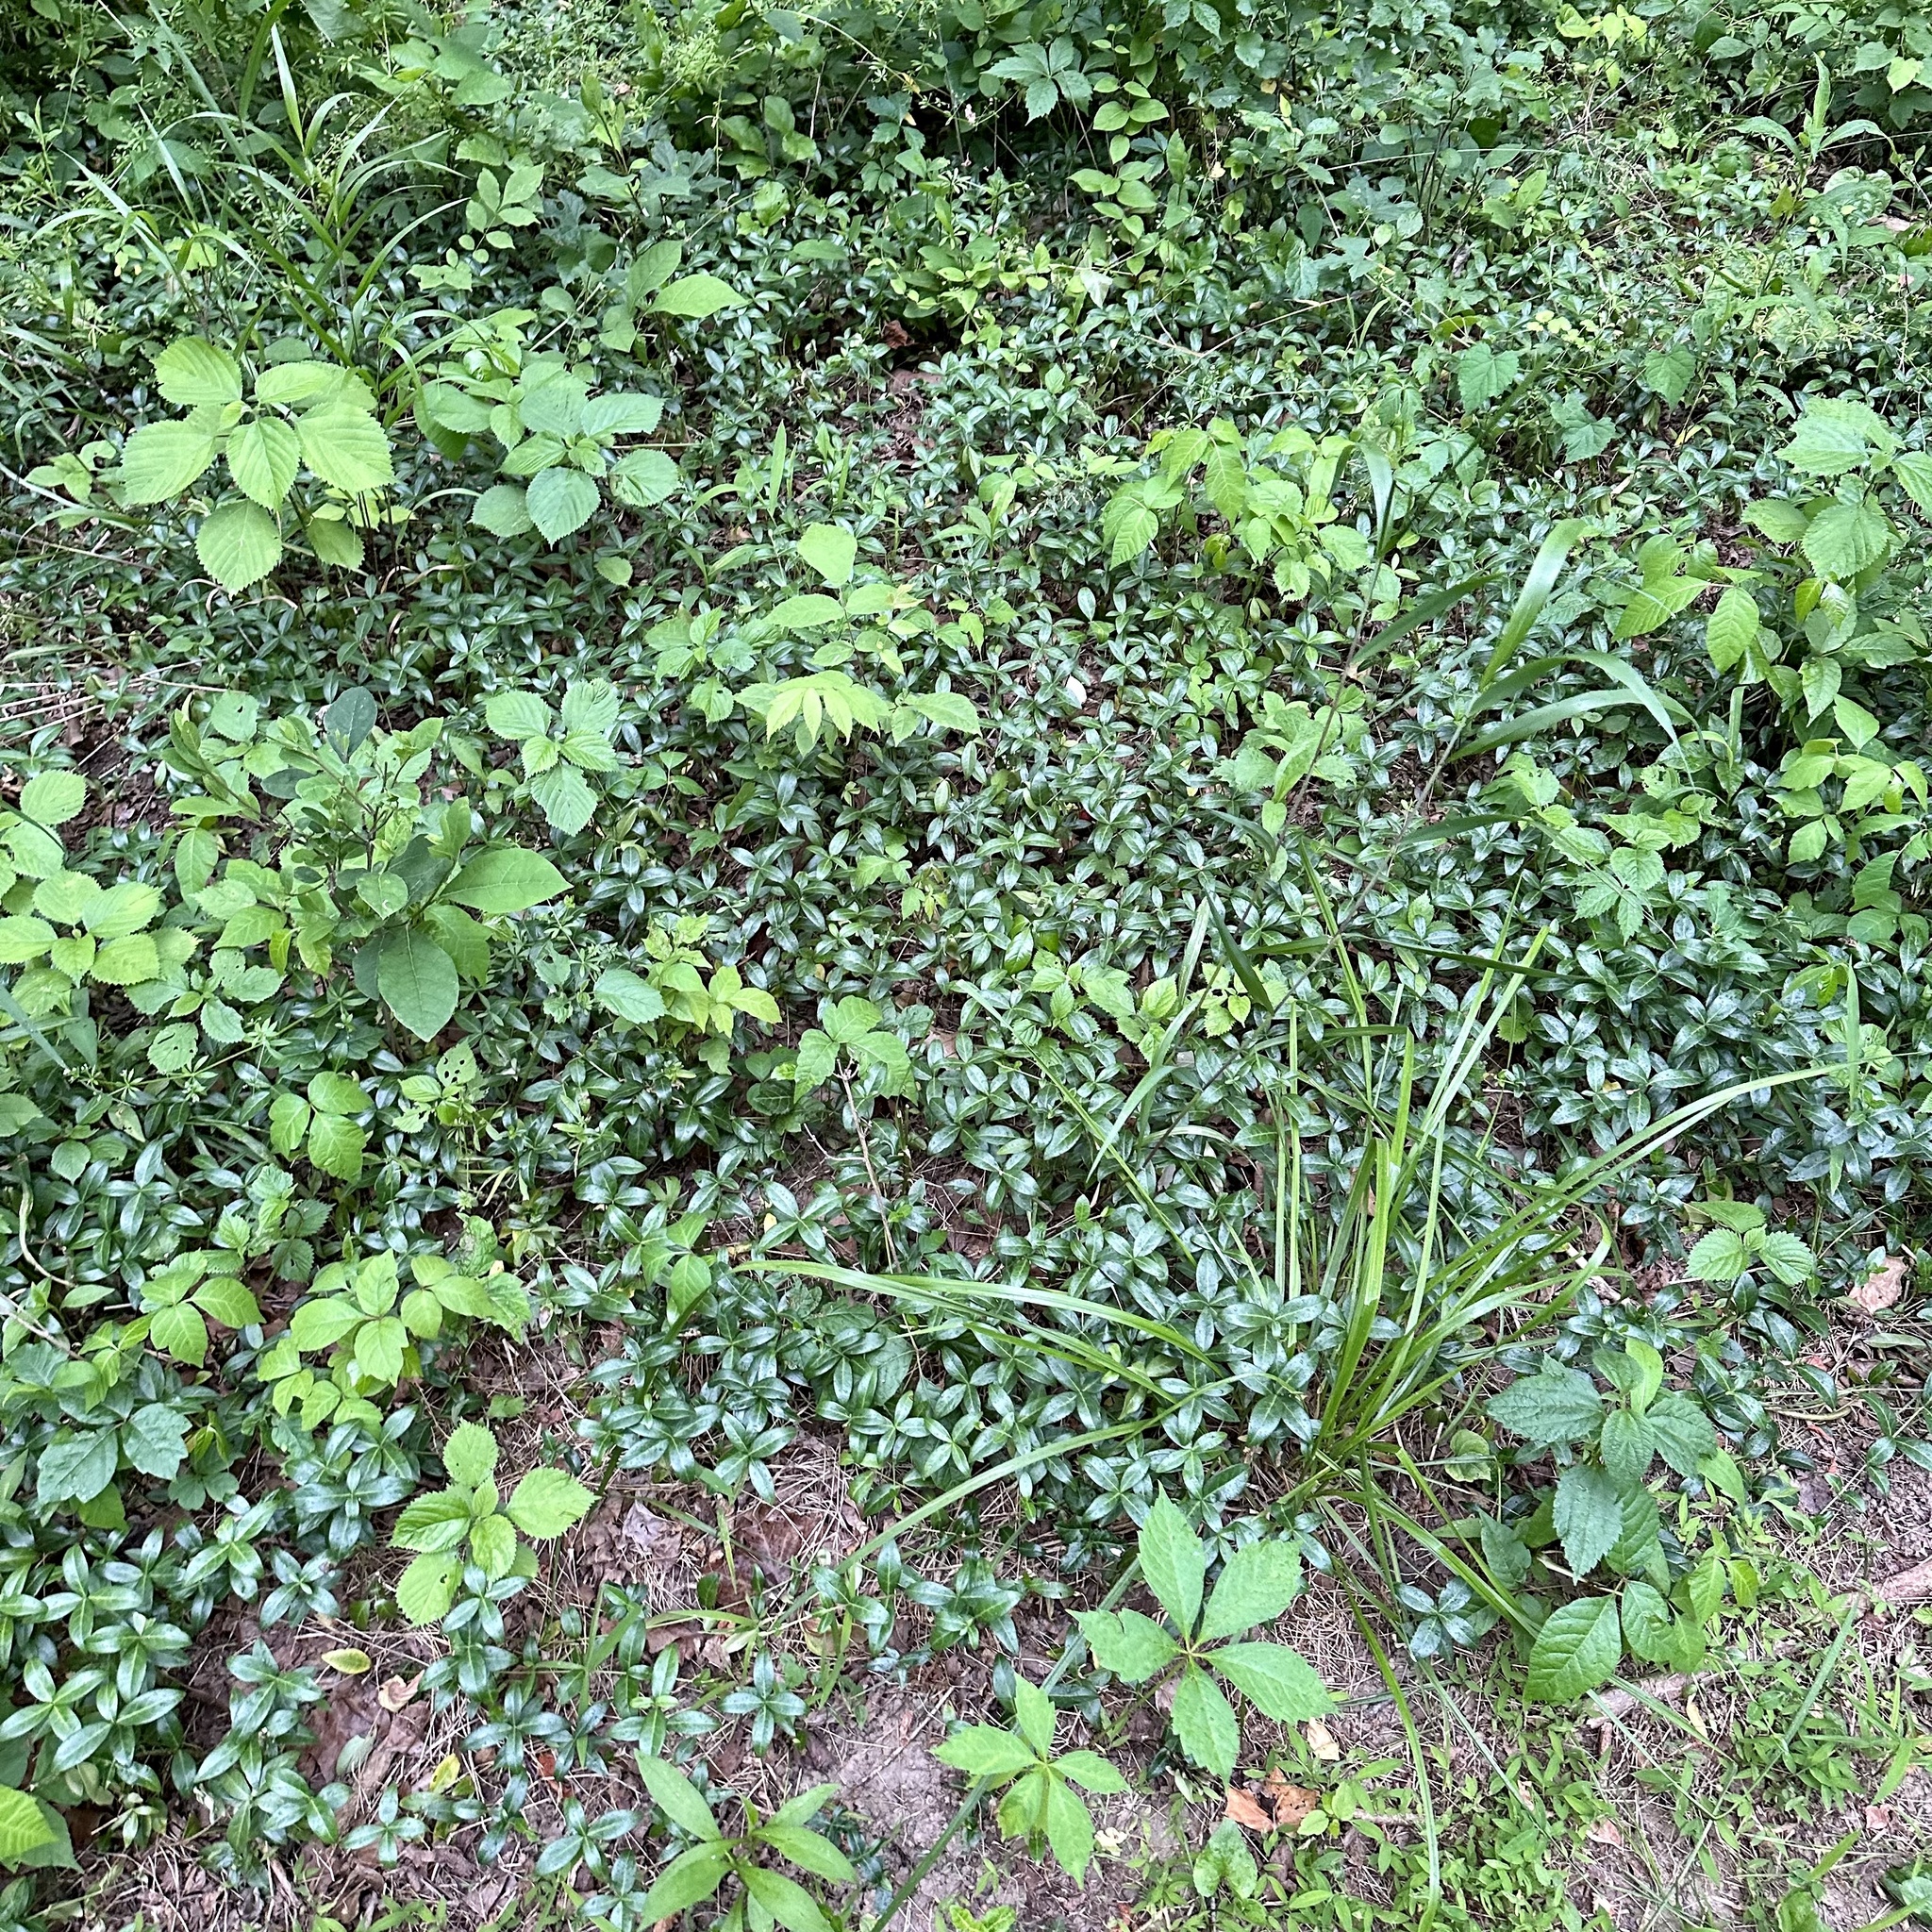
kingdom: Plantae
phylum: Tracheophyta
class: Magnoliopsida
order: Gentianales
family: Apocynaceae
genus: Vinca
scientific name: Vinca minor
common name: Lesser periwinkle
